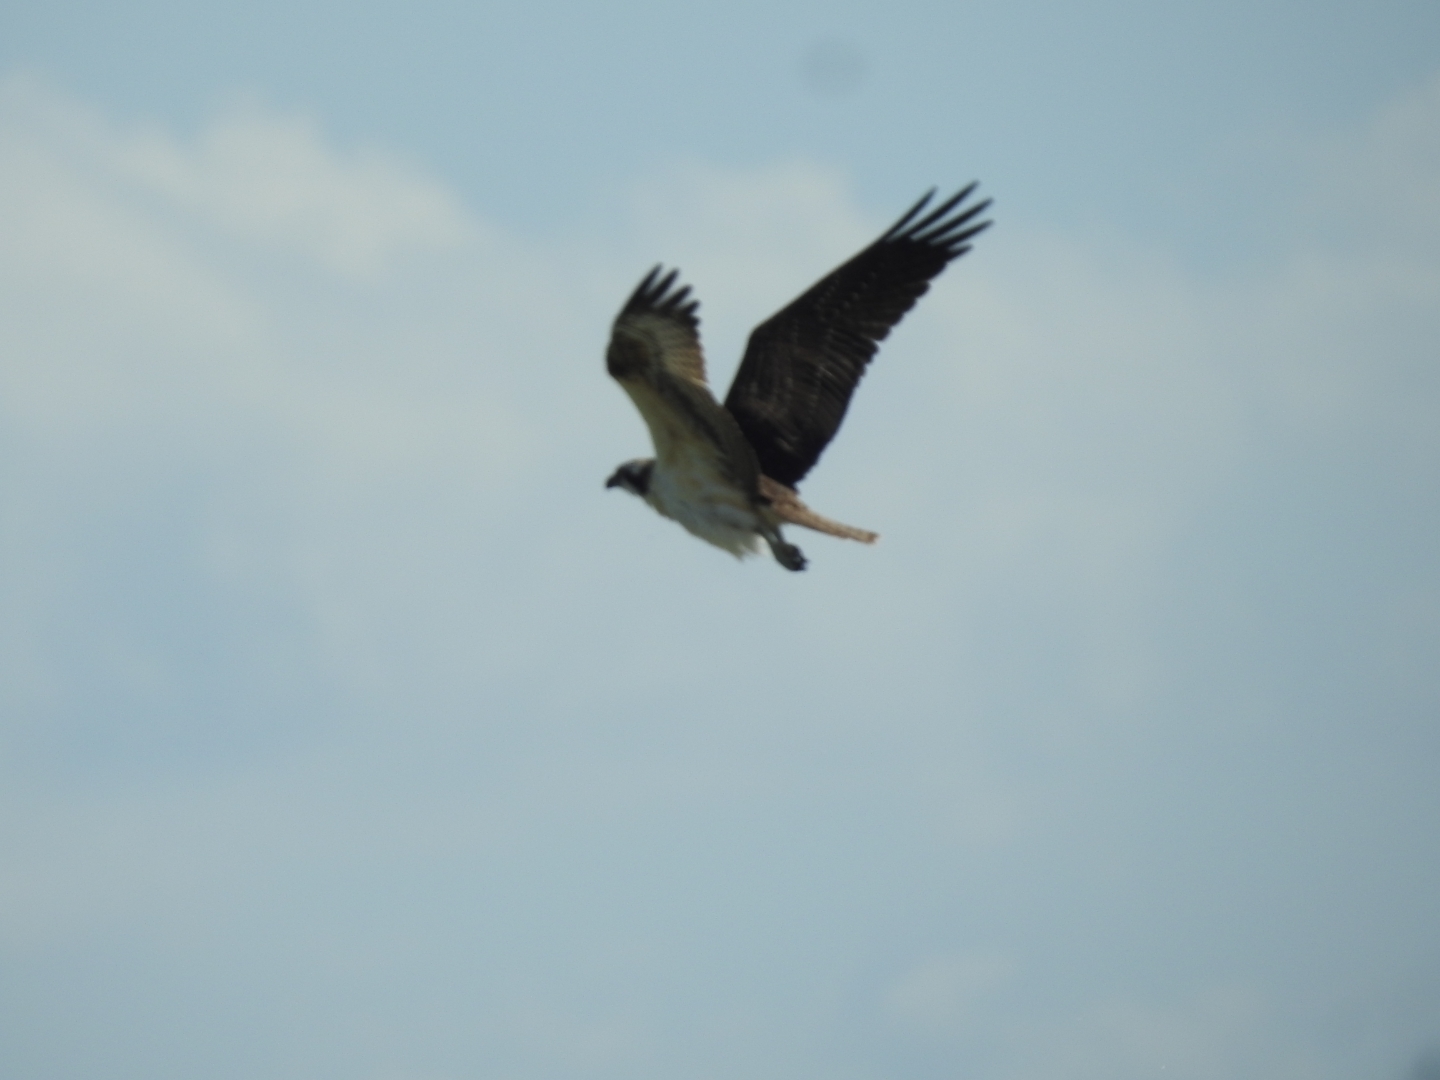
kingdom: Animalia
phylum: Chordata
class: Aves
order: Accipitriformes
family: Pandionidae
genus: Pandion
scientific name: Pandion haliaetus
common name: Osprey
